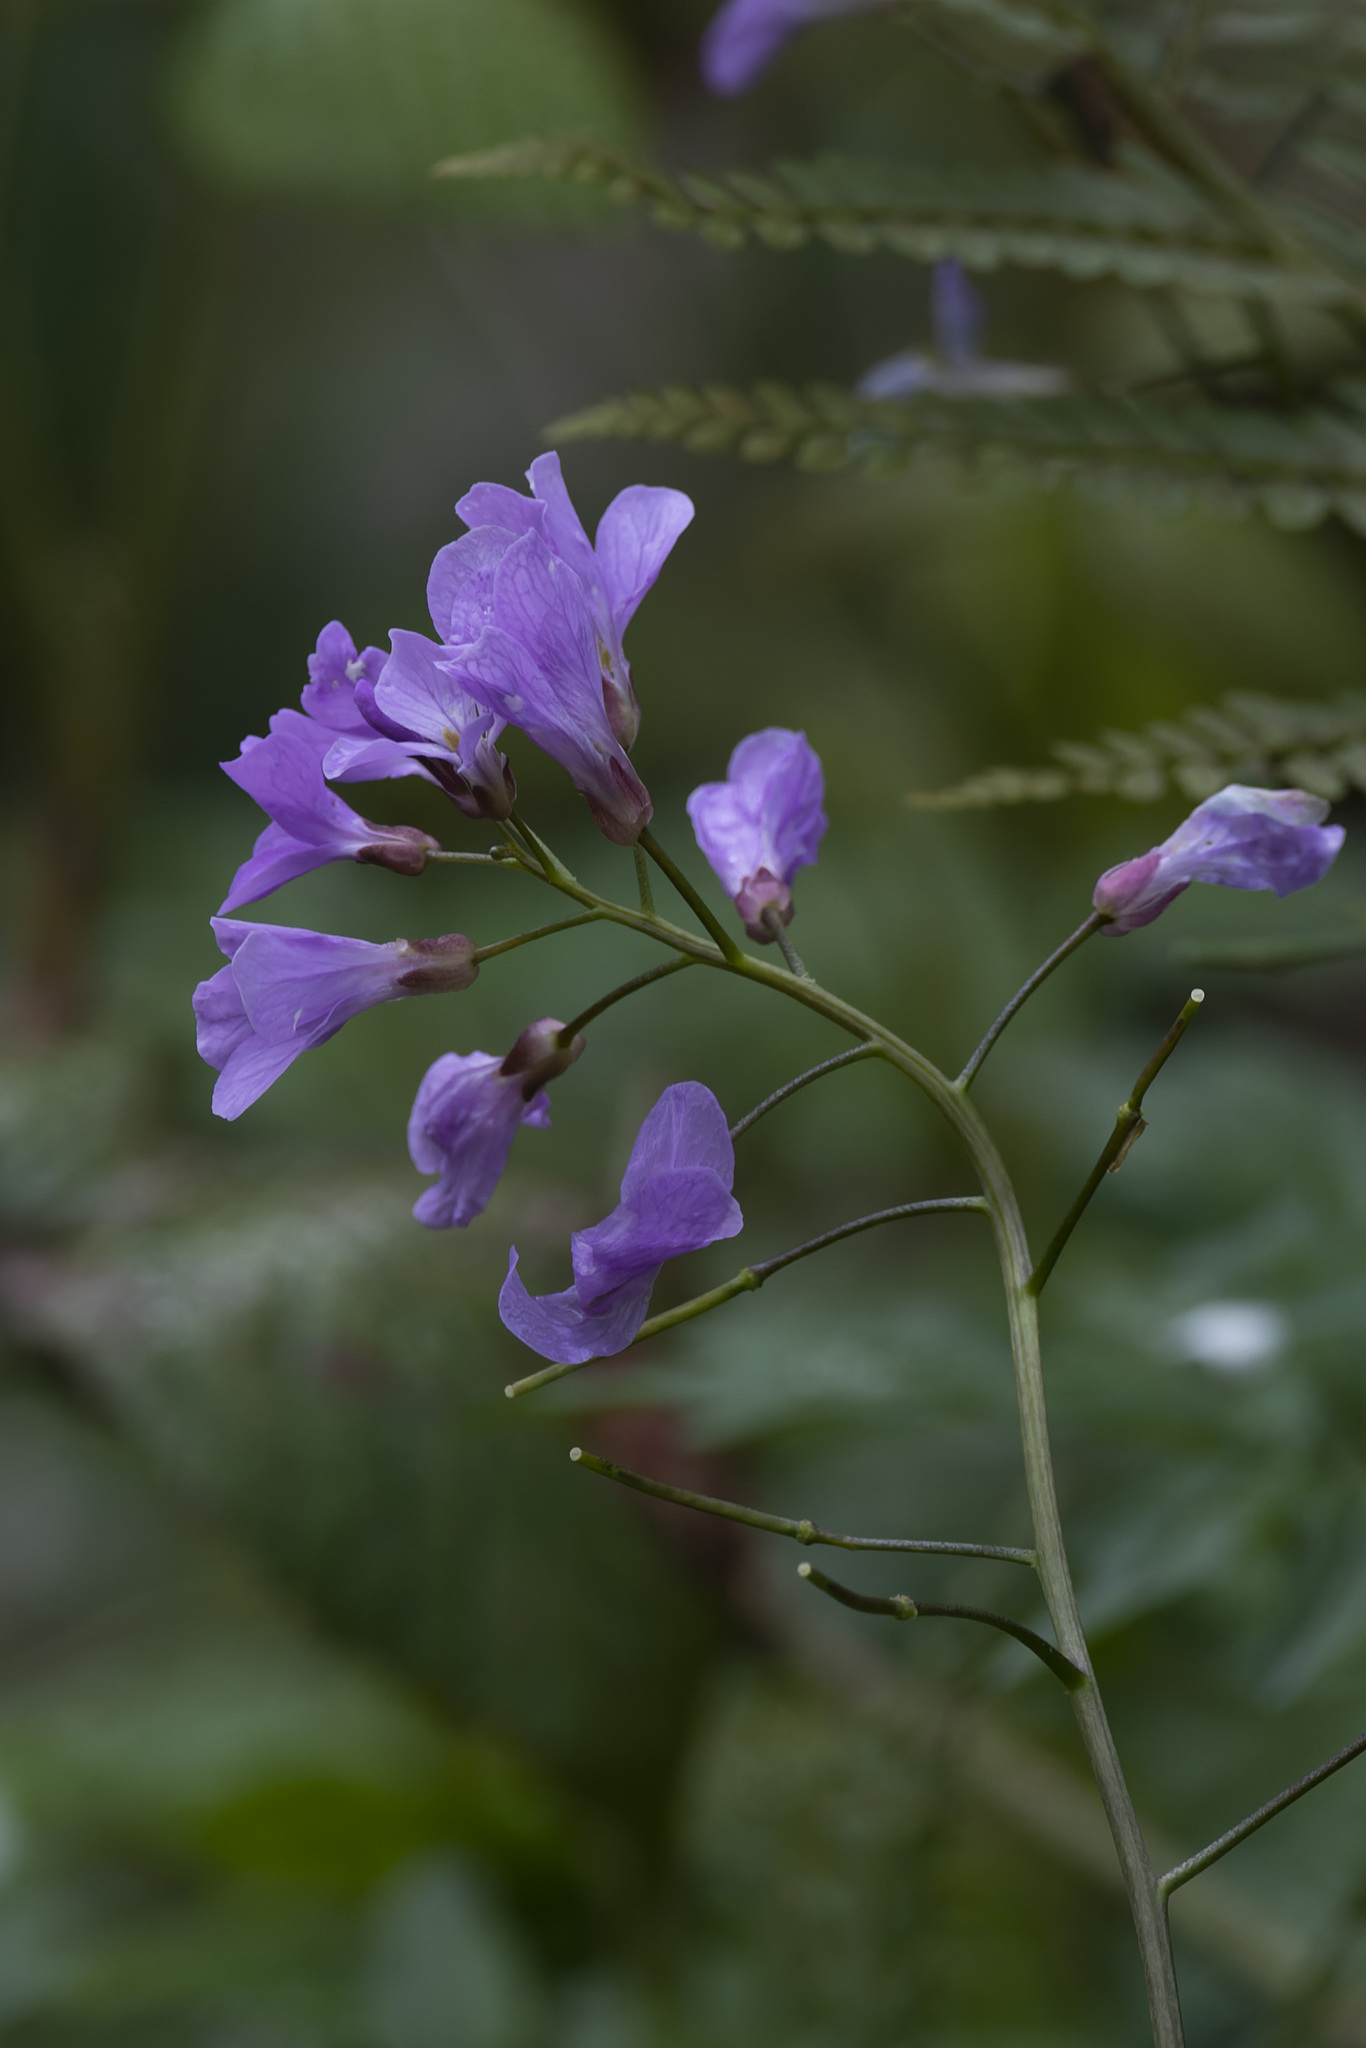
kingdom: Plantae
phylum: Tracheophyta
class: Magnoliopsida
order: Brassicales
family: Brassicaceae
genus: Cardamine
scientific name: Cardamine quinquefolia
